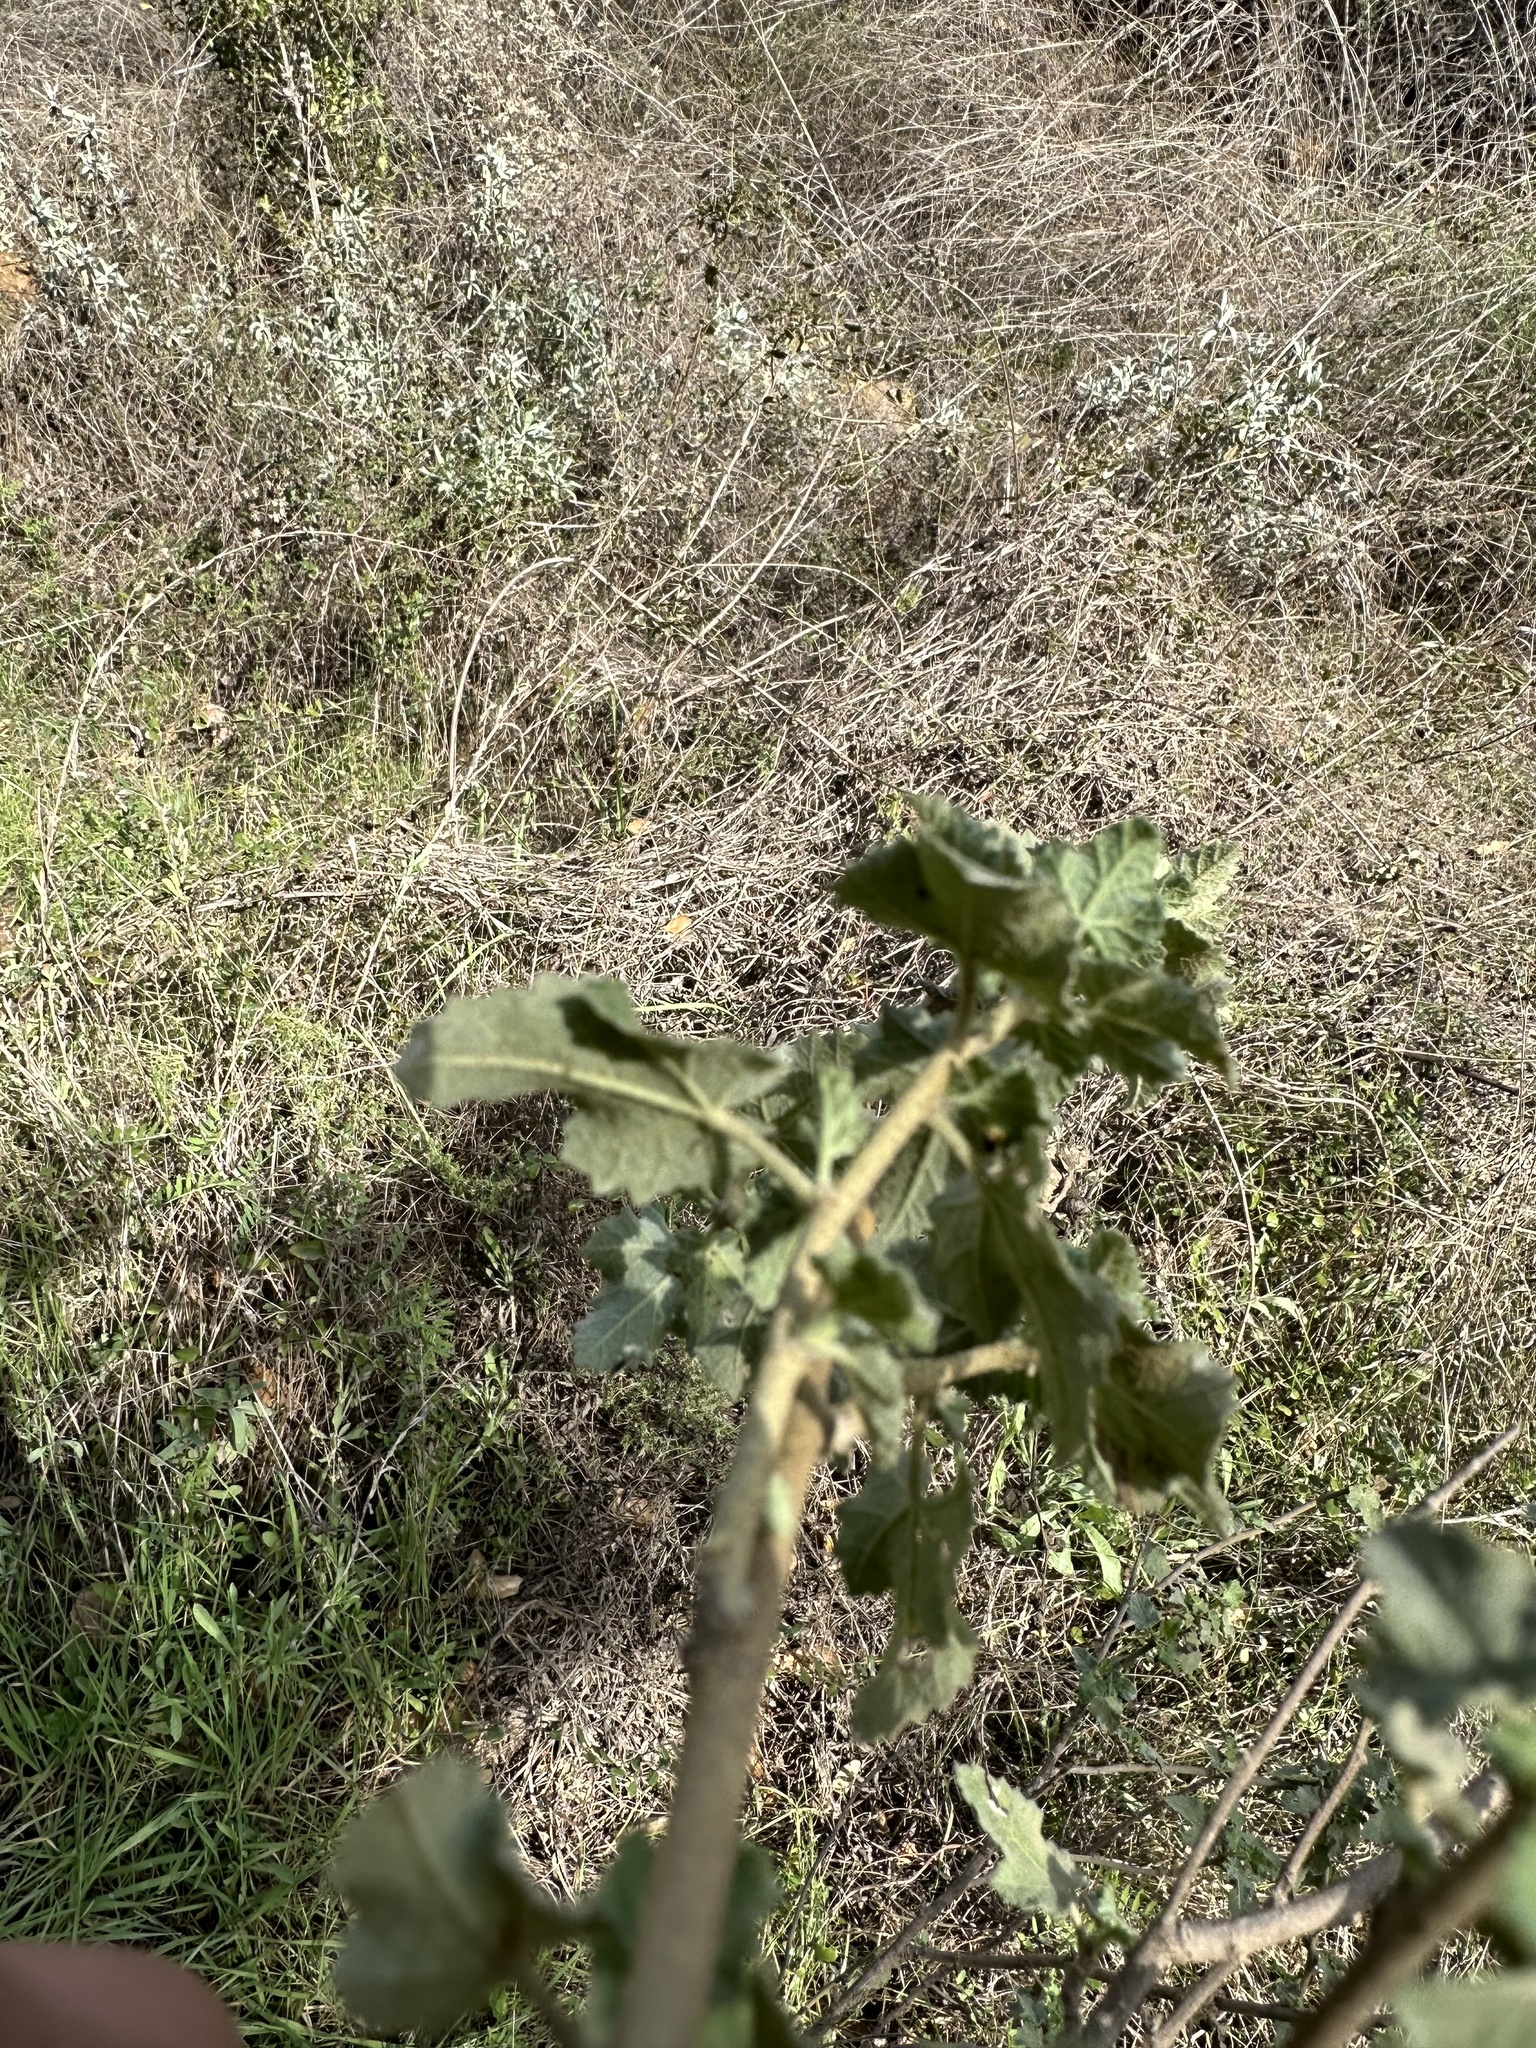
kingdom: Plantae
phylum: Tracheophyta
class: Magnoliopsida
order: Malvales
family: Malvaceae
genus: Malacothamnus
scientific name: Malacothamnus fasciculatus
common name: Sant cruz island bush-mallow
